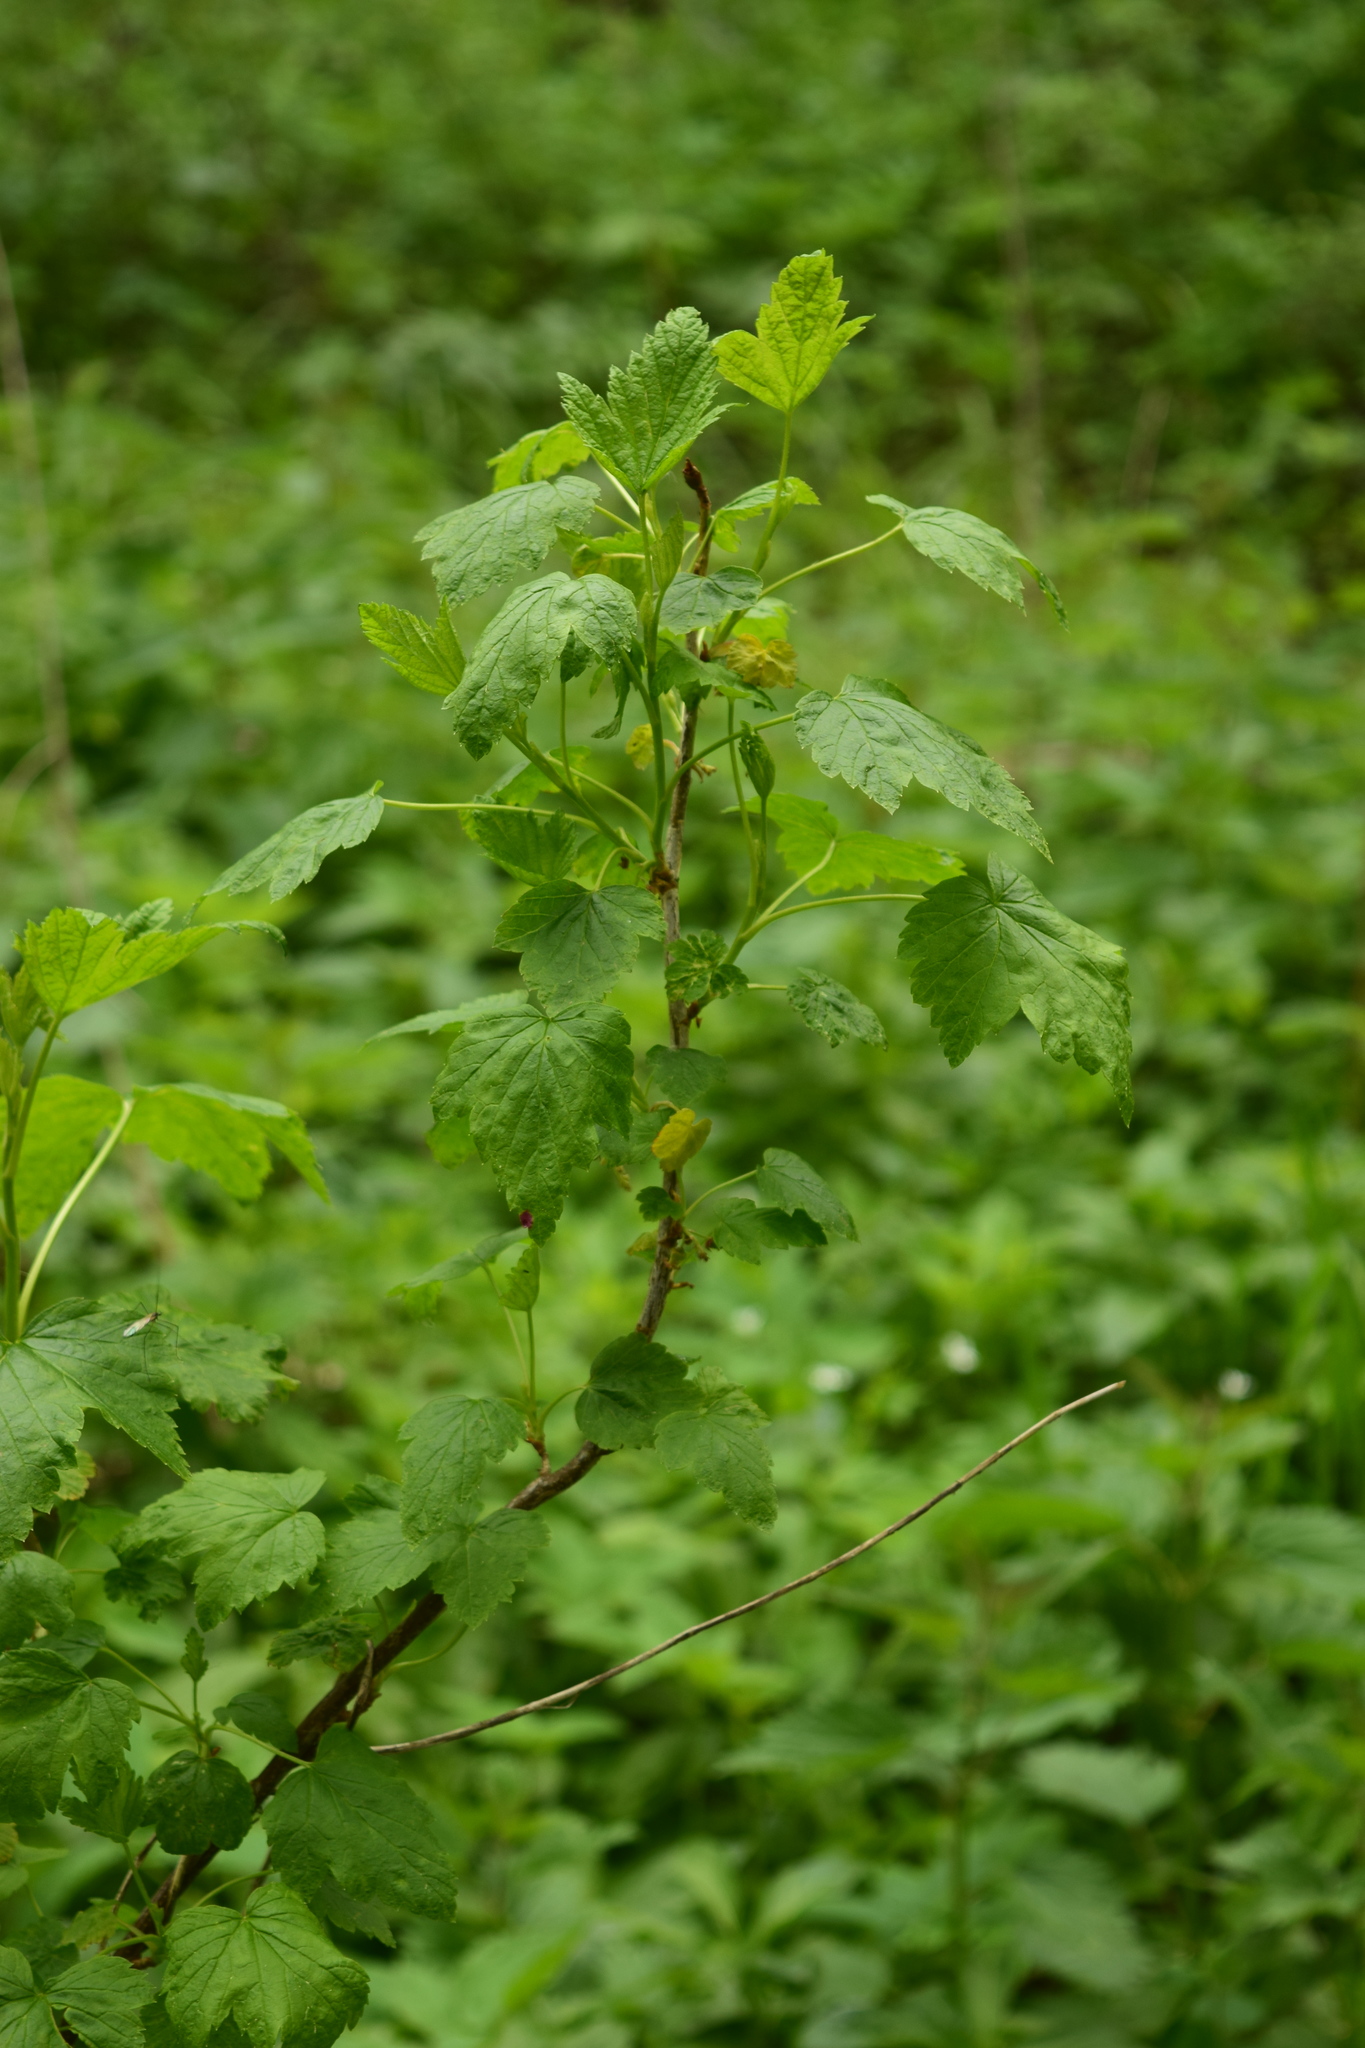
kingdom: Plantae
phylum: Tracheophyta
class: Magnoliopsida
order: Saxifragales
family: Grossulariaceae
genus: Ribes
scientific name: Ribes nigrum
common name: Black currant
